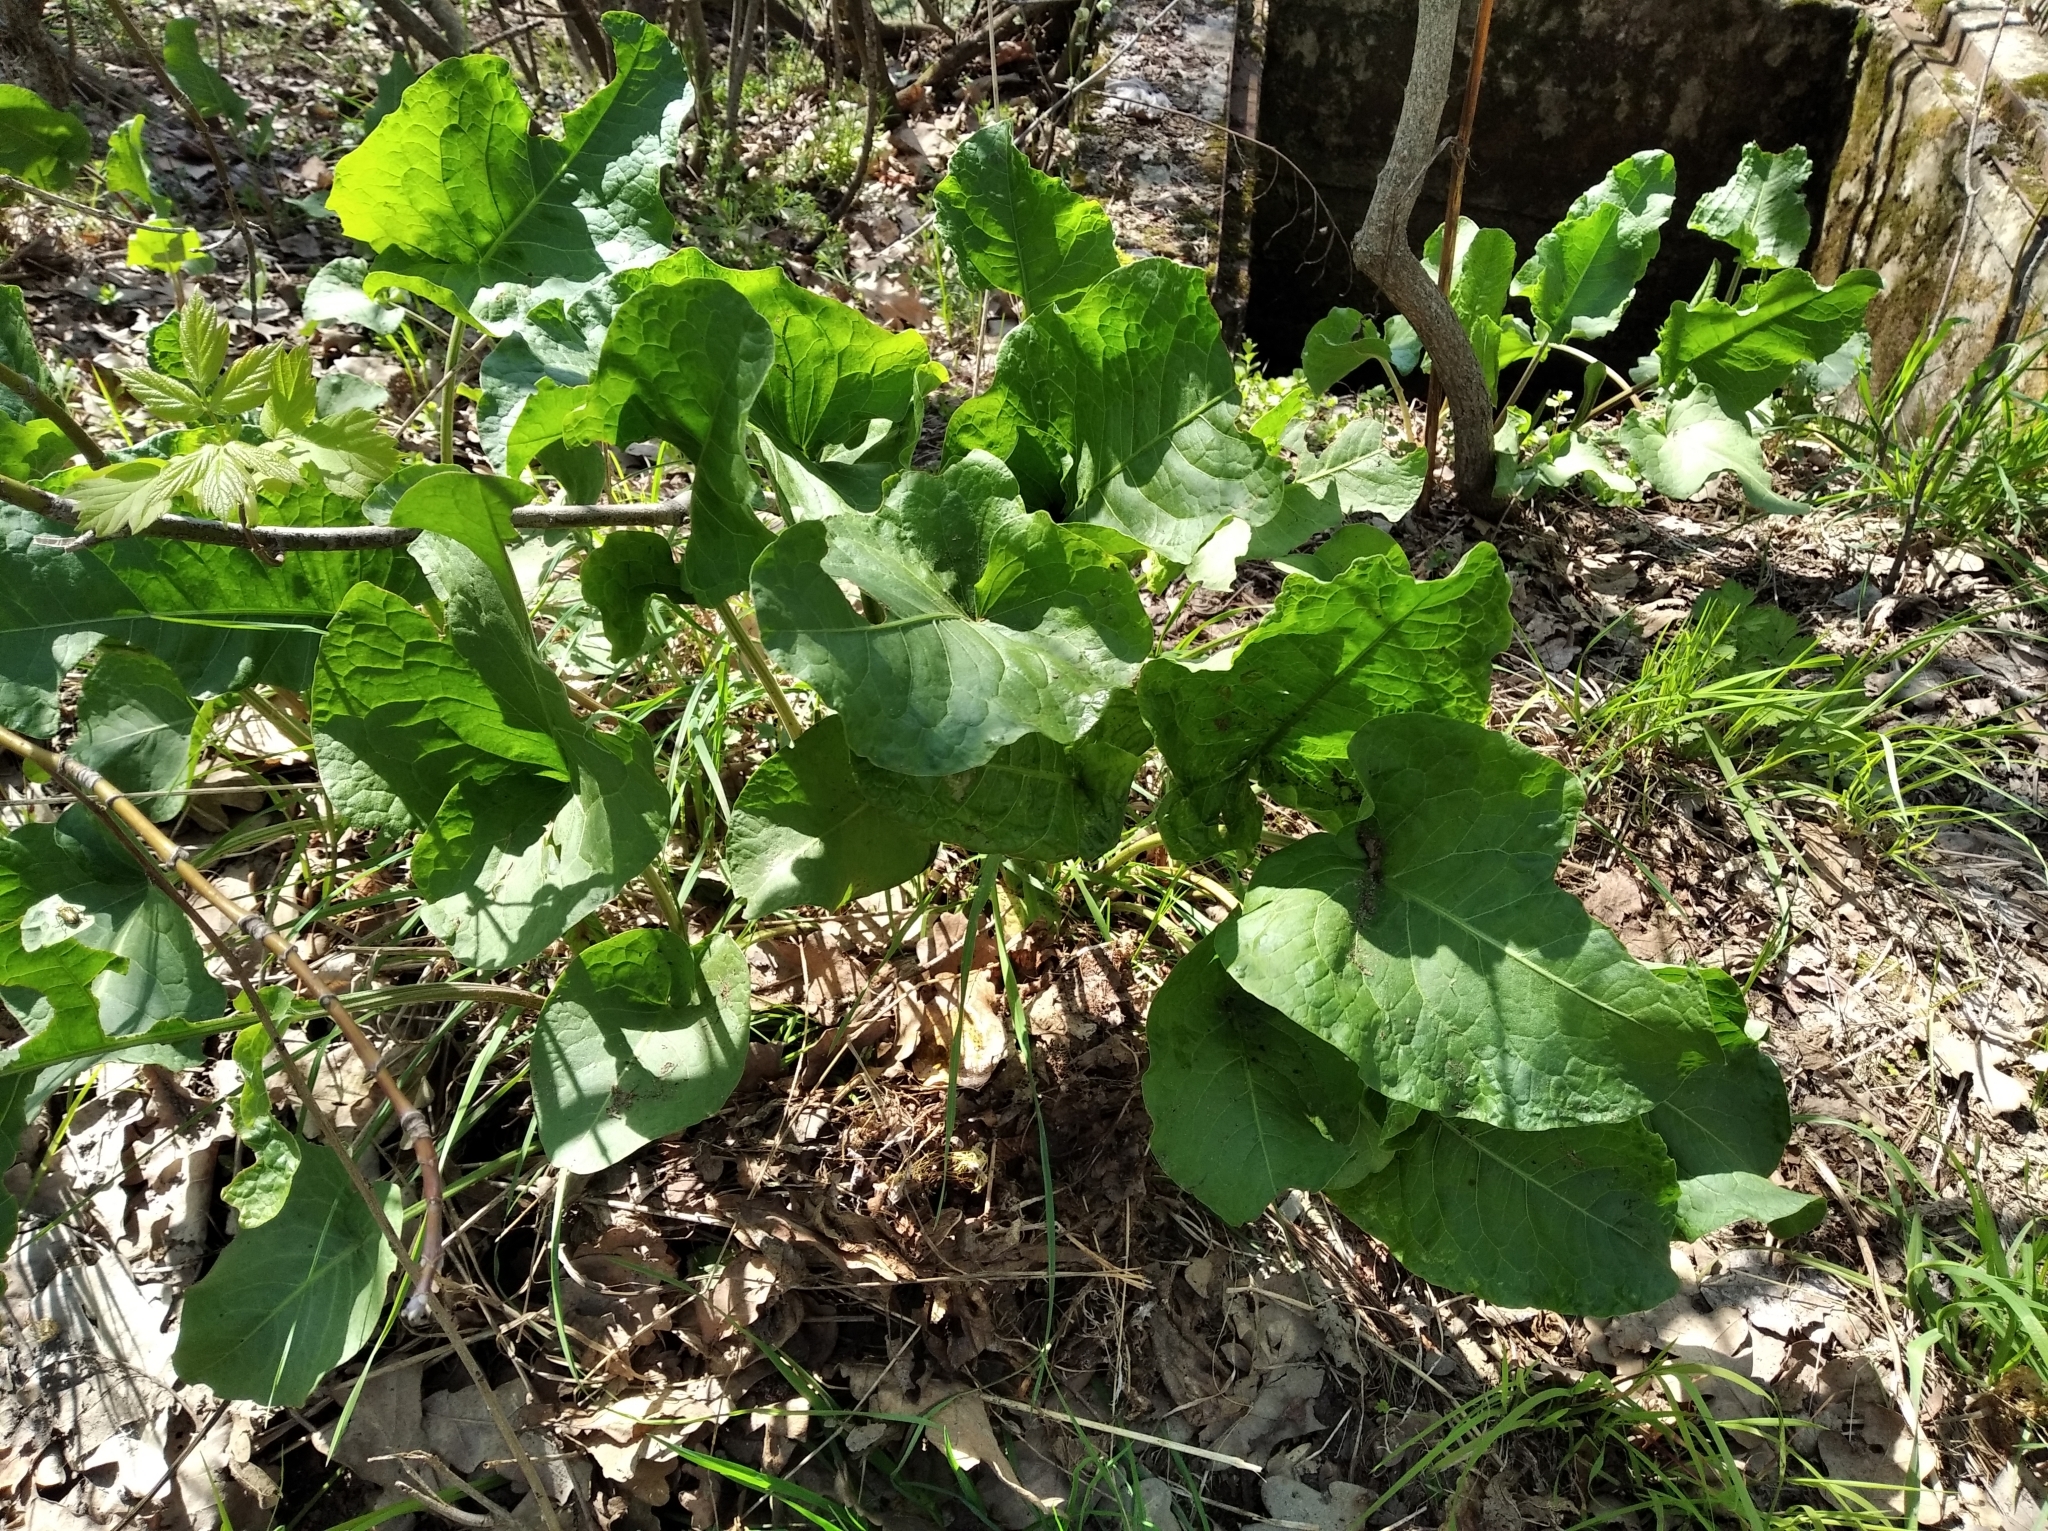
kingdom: Plantae
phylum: Tracheophyta
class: Magnoliopsida
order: Caryophyllales
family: Polygonaceae
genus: Rumex
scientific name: Rumex confertus
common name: Russian dock
